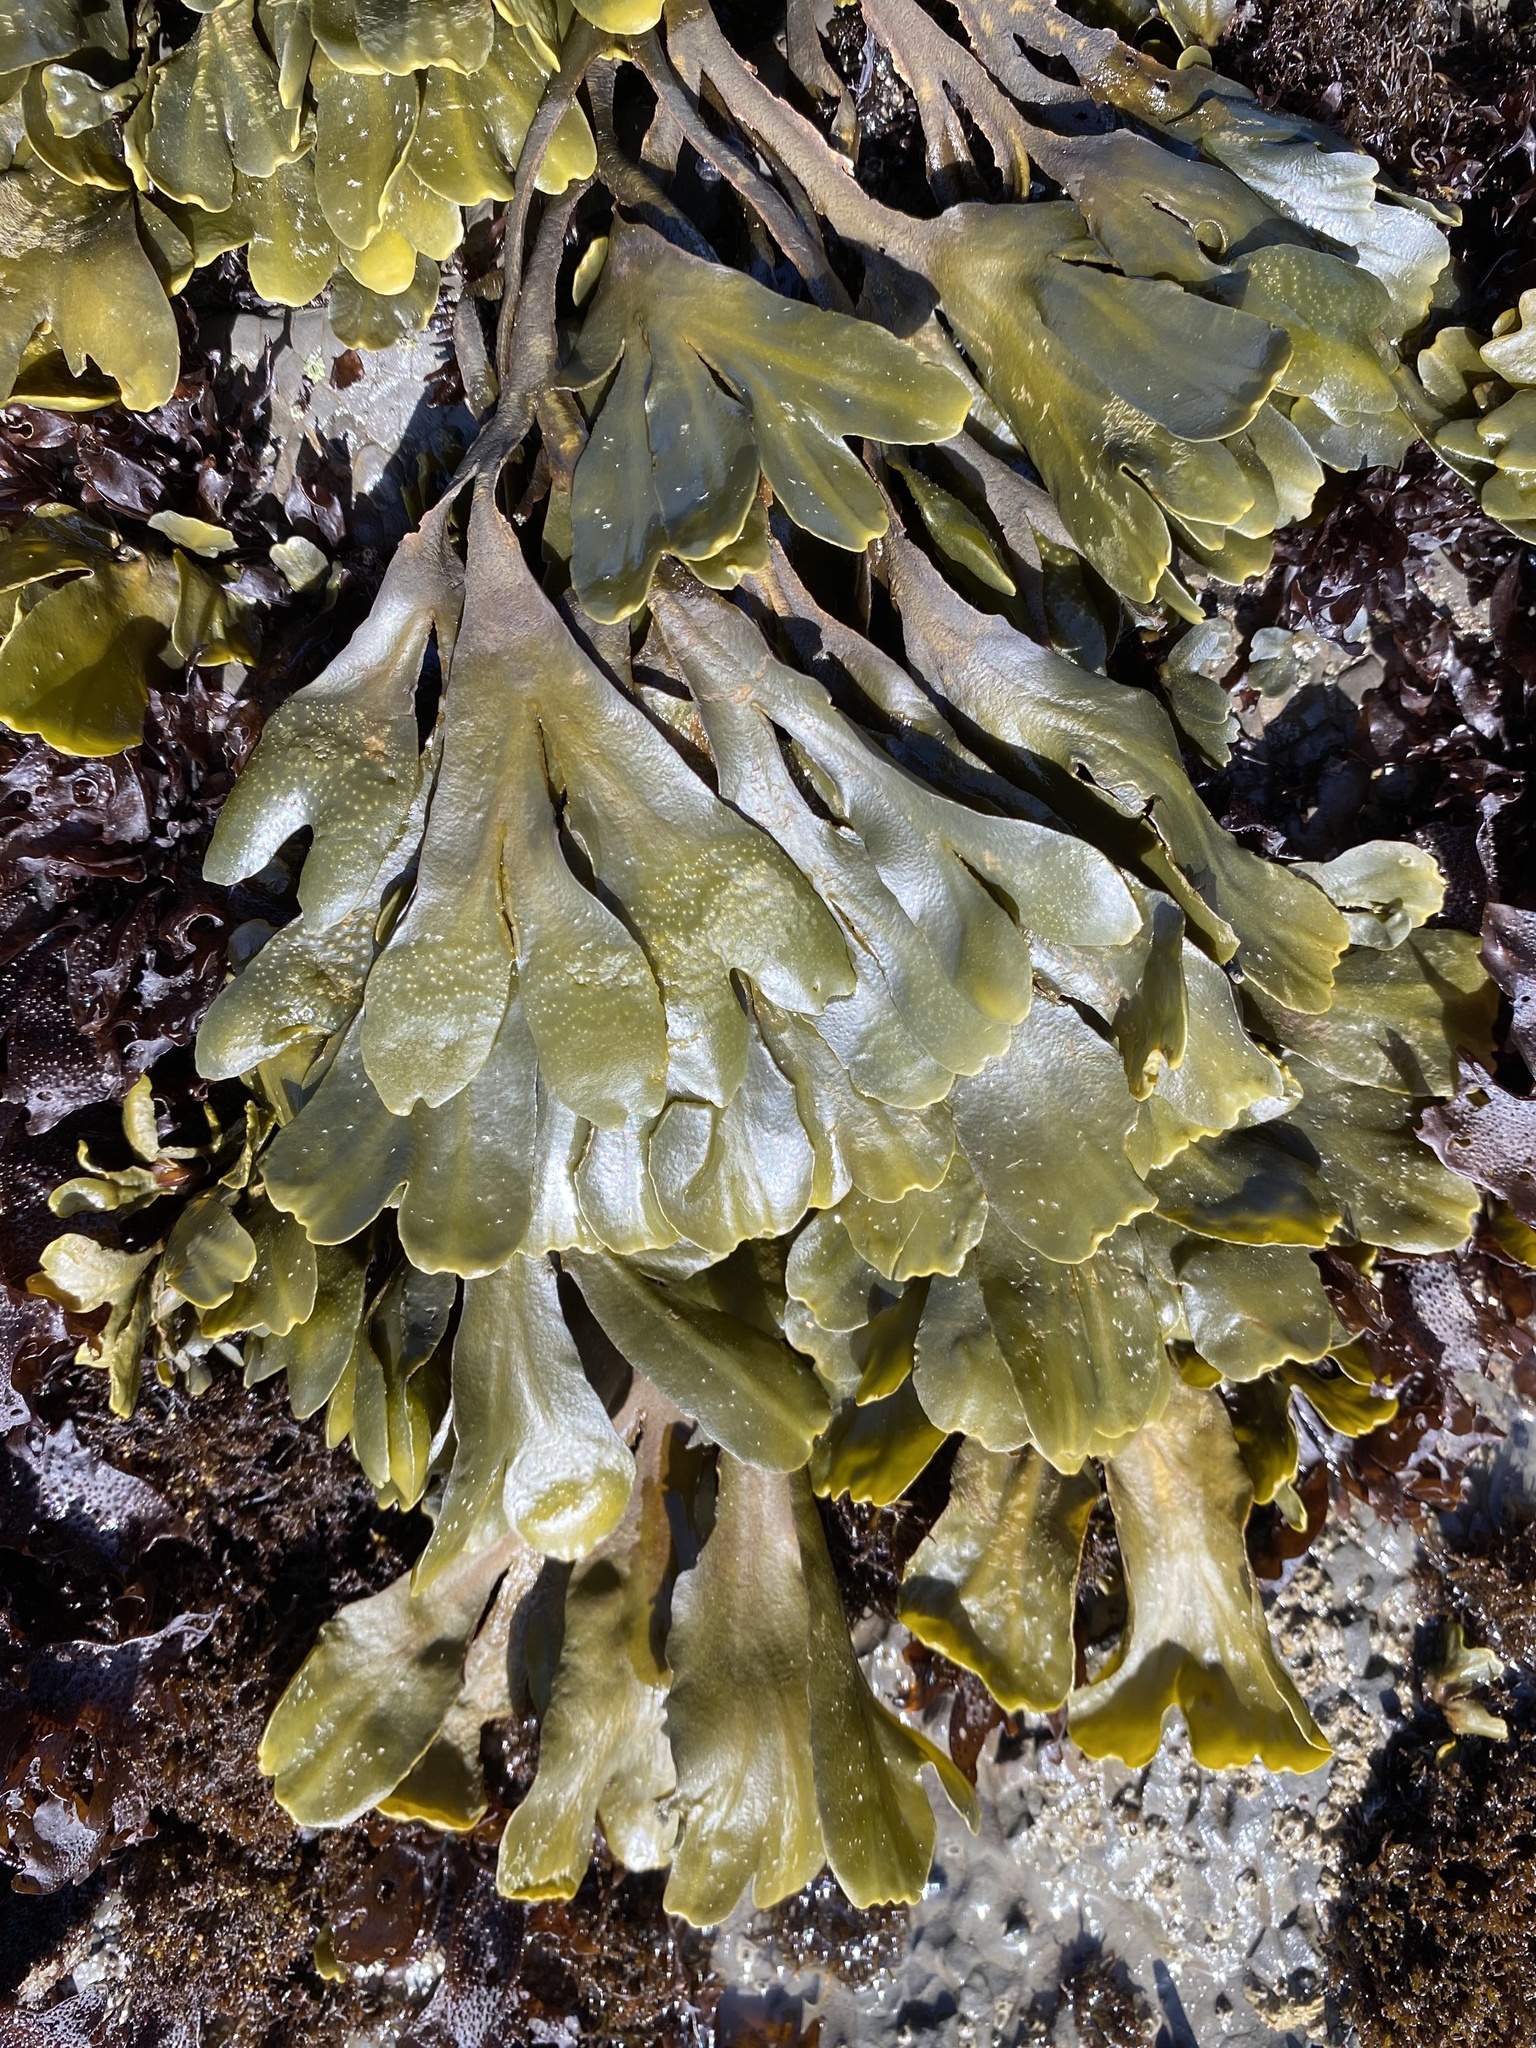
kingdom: Chromista
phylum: Ochrophyta
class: Phaeophyceae
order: Fucales
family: Fucaceae
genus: Fucus
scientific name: Fucus distichus
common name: Rockweed
